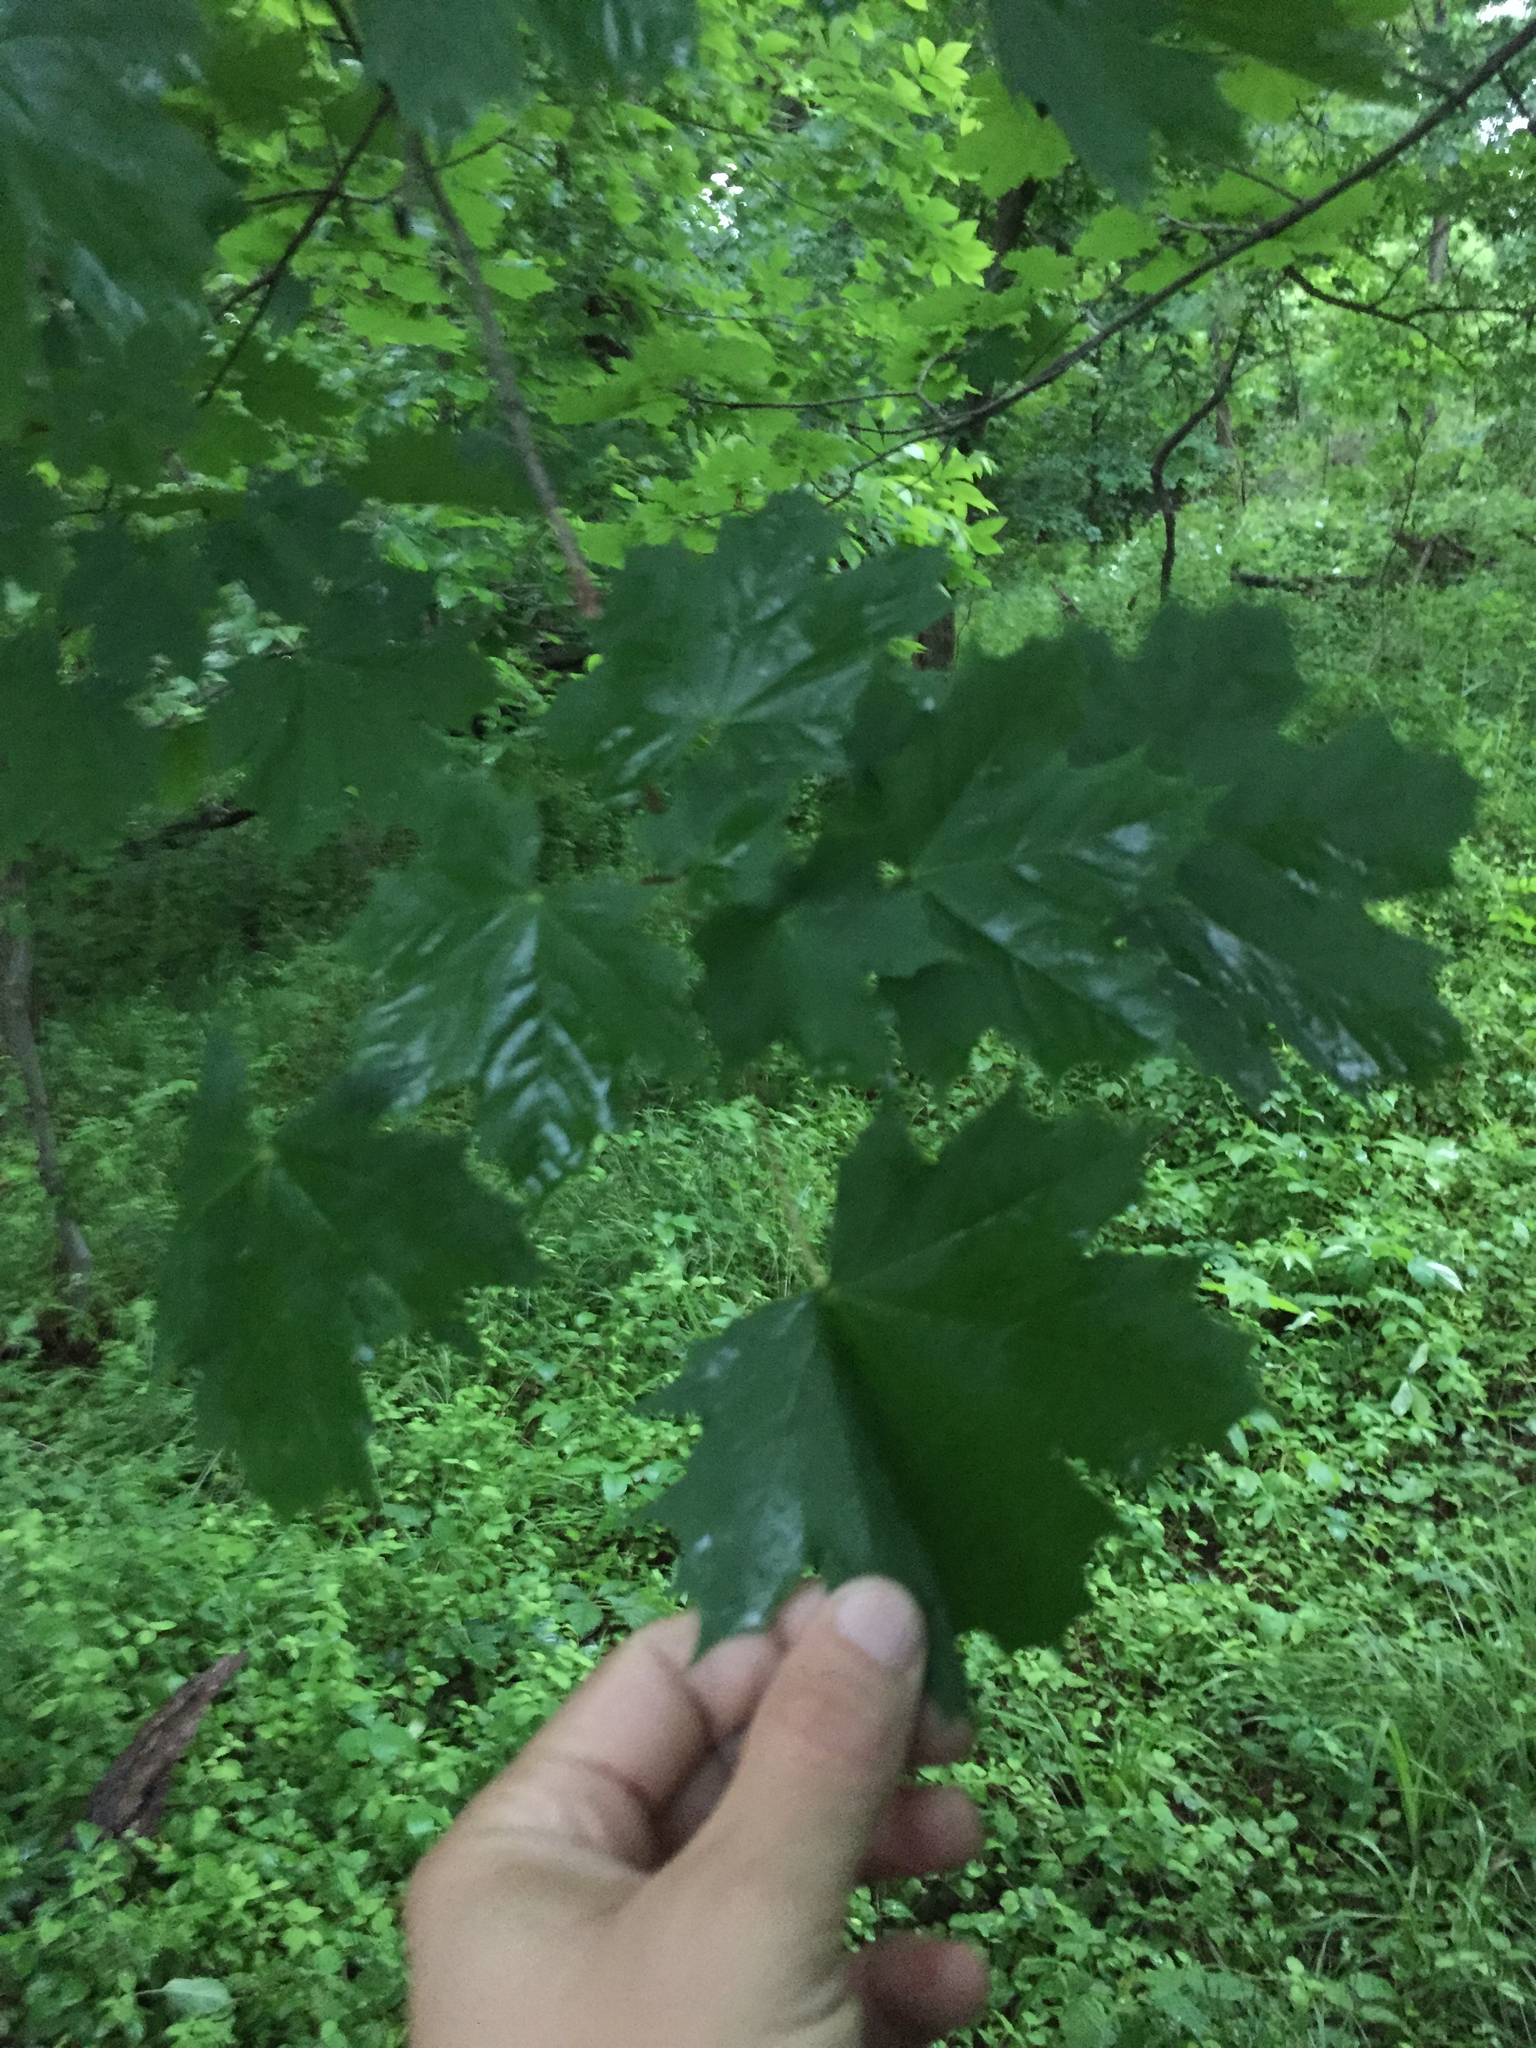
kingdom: Plantae
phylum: Tracheophyta
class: Magnoliopsida
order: Sapindales
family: Sapindaceae
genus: Acer
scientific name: Acer platanoides
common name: Norway maple
